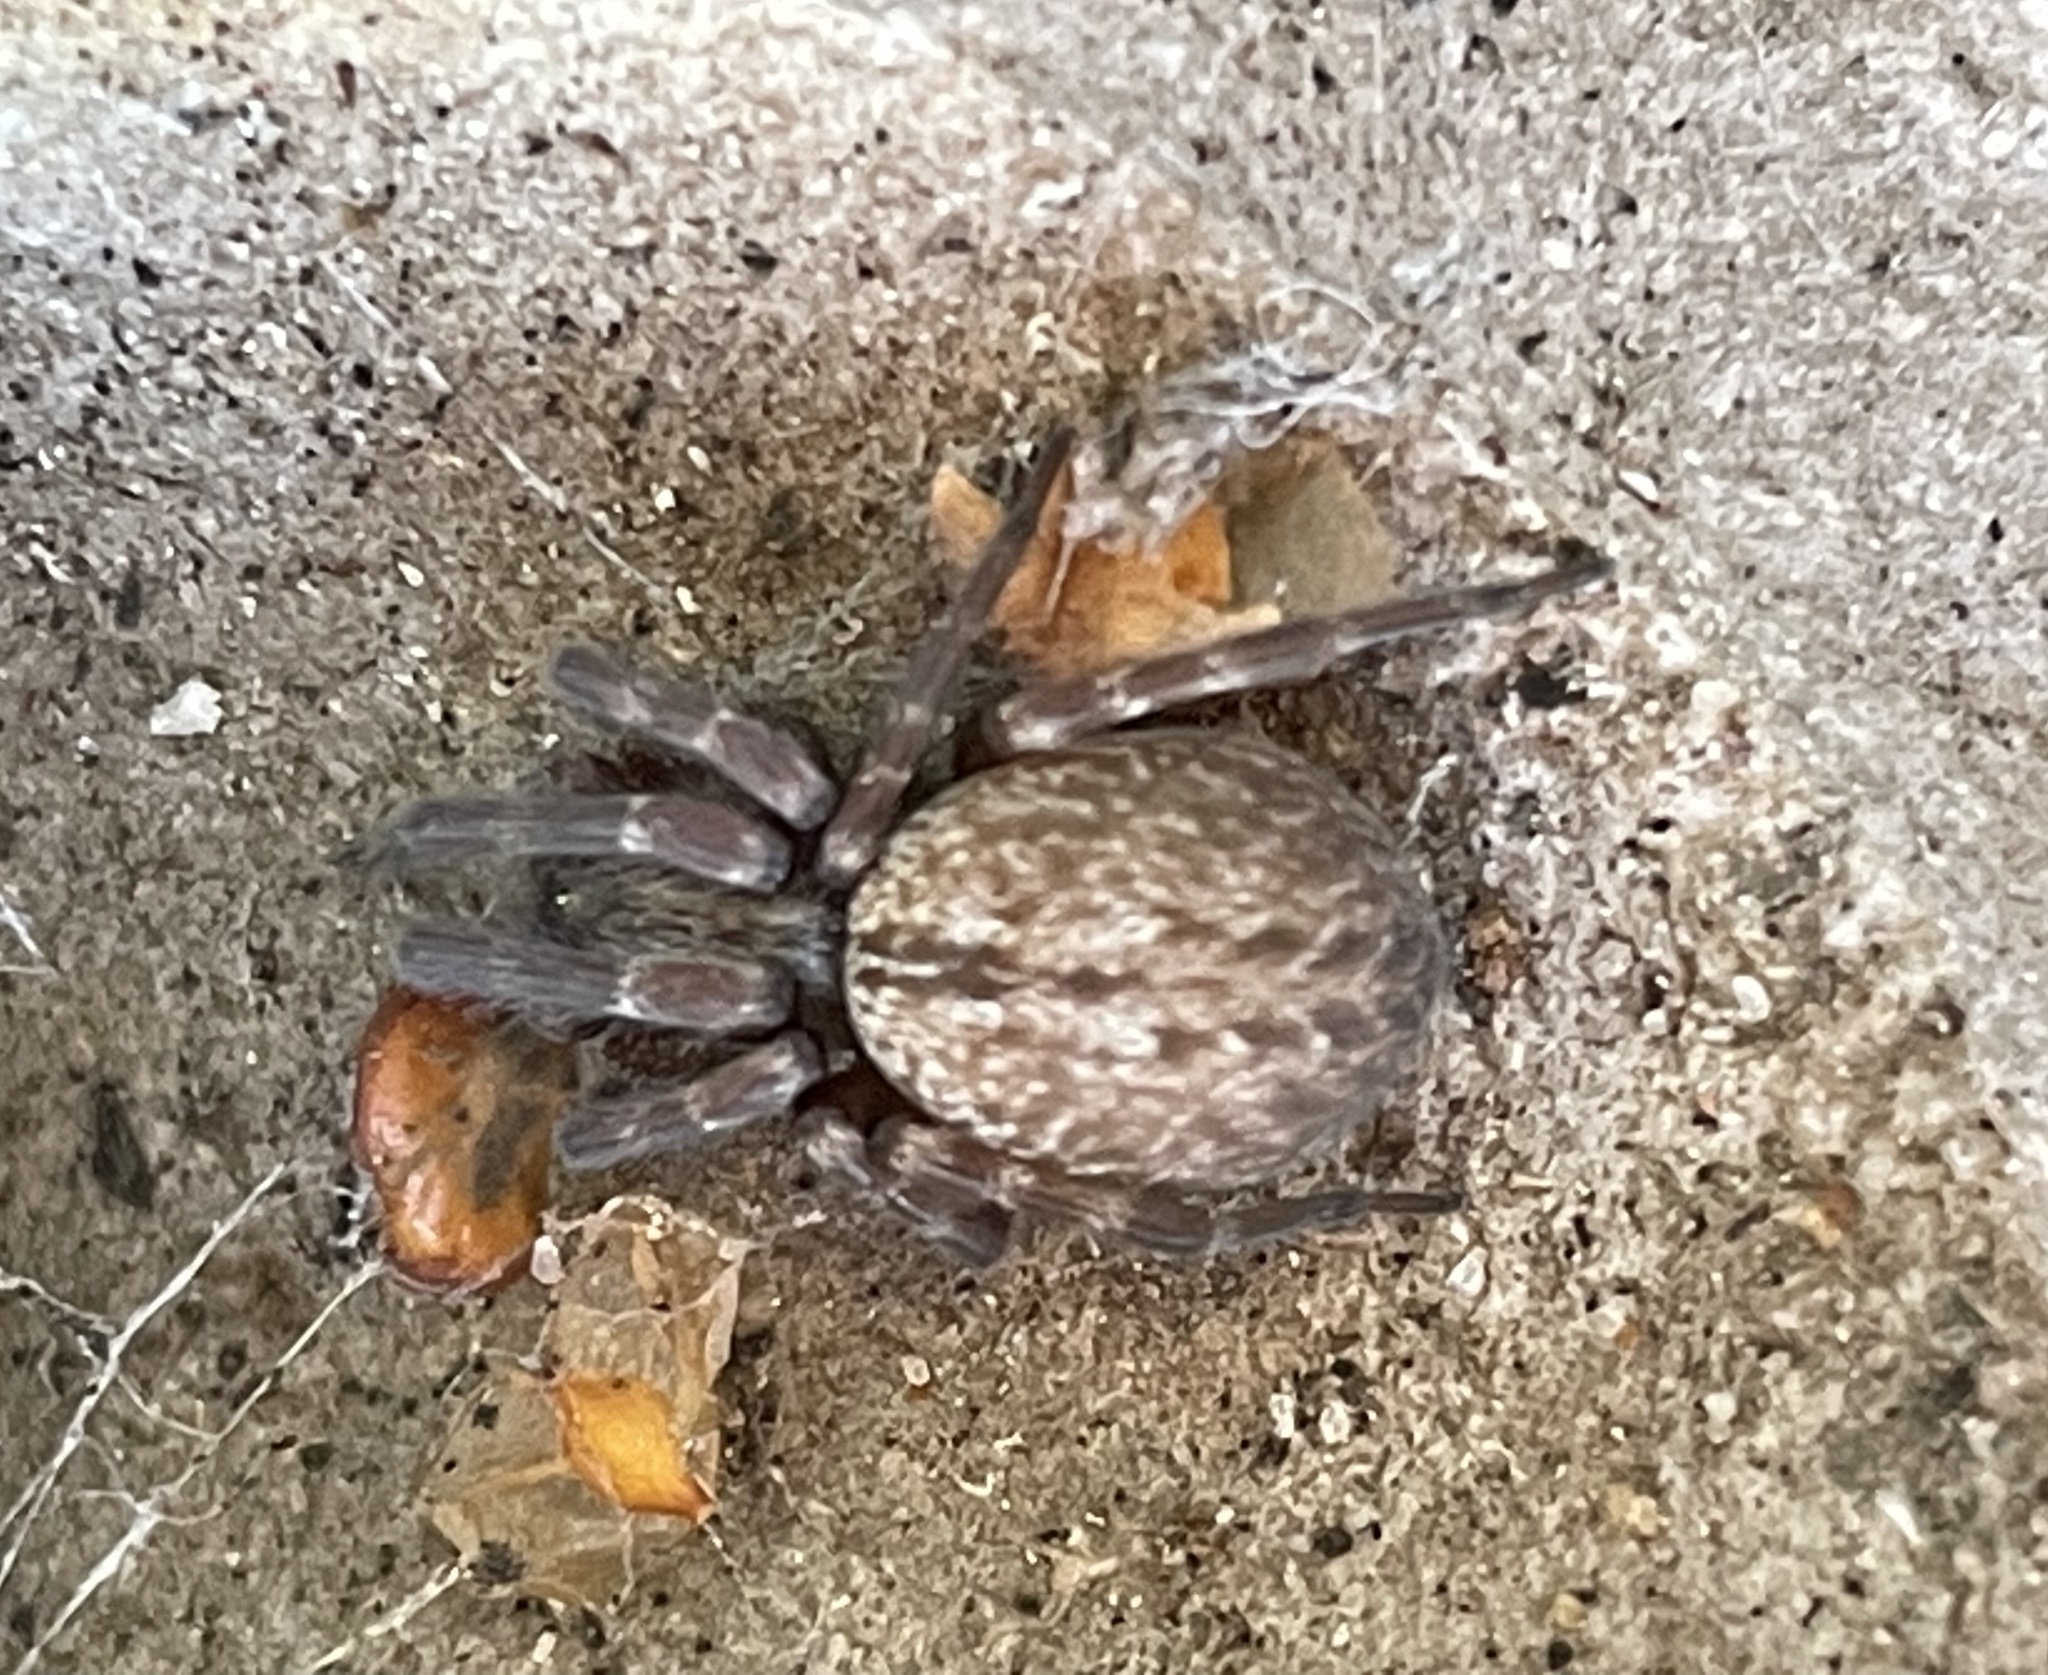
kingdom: Animalia
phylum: Arthropoda
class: Arachnida
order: Araneae
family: Desidae
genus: Badumna
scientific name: Badumna longinqua
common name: Gray house spider
